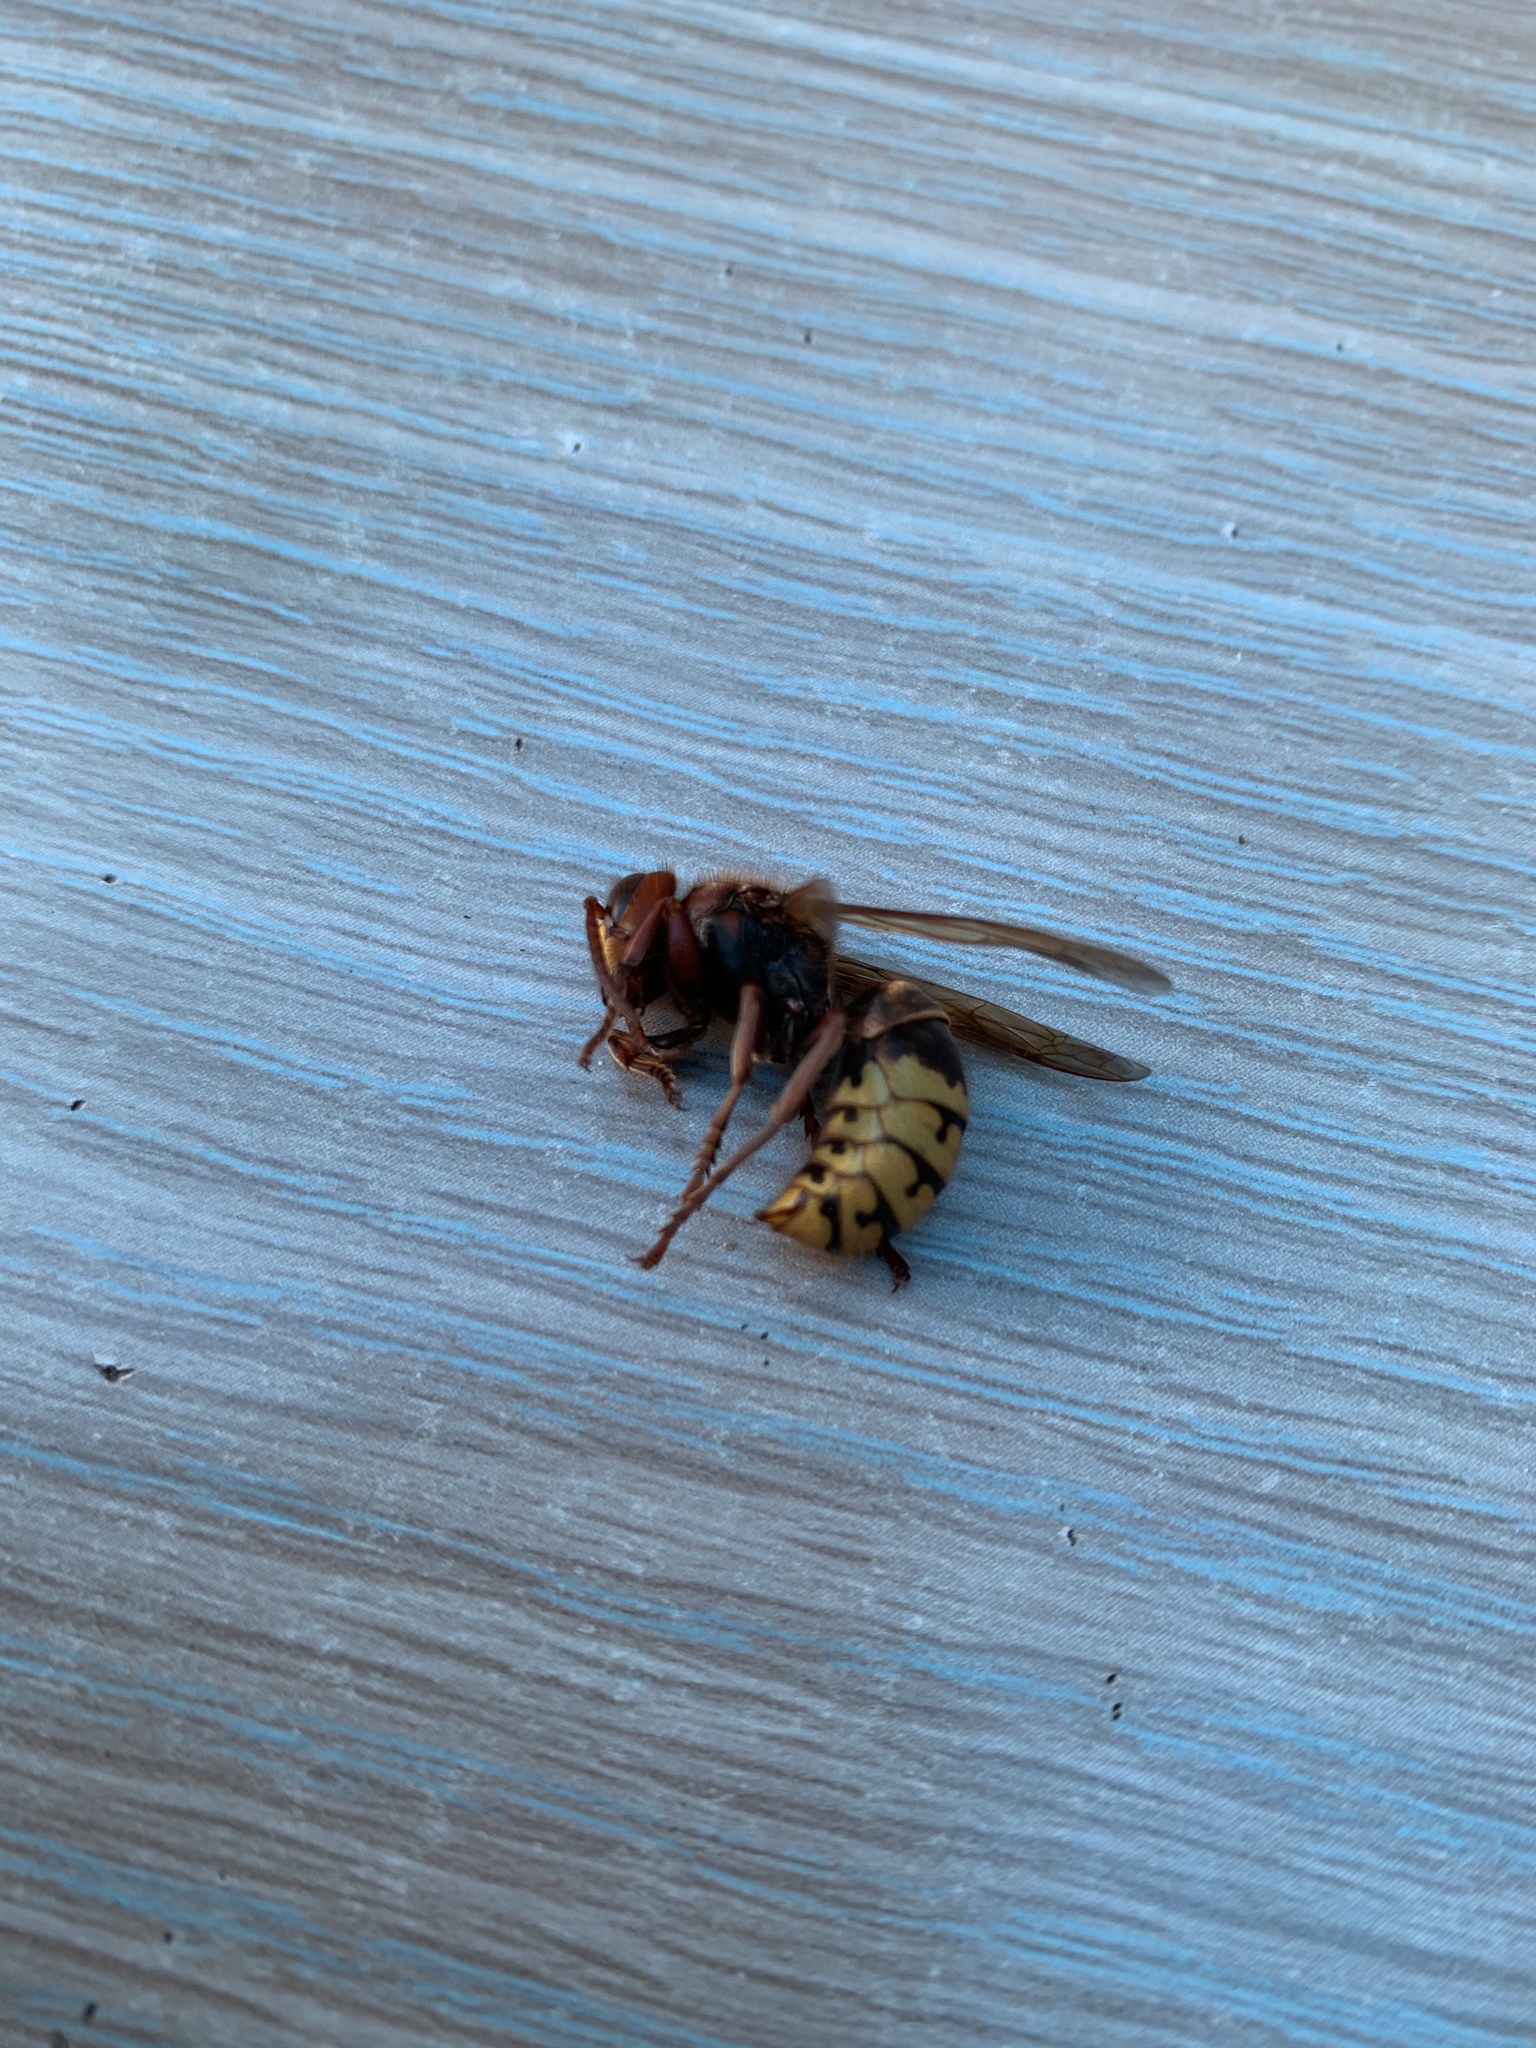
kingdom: Animalia
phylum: Arthropoda
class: Insecta
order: Hymenoptera
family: Vespidae
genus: Vespa
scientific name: Vespa crabro
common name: Hornet
